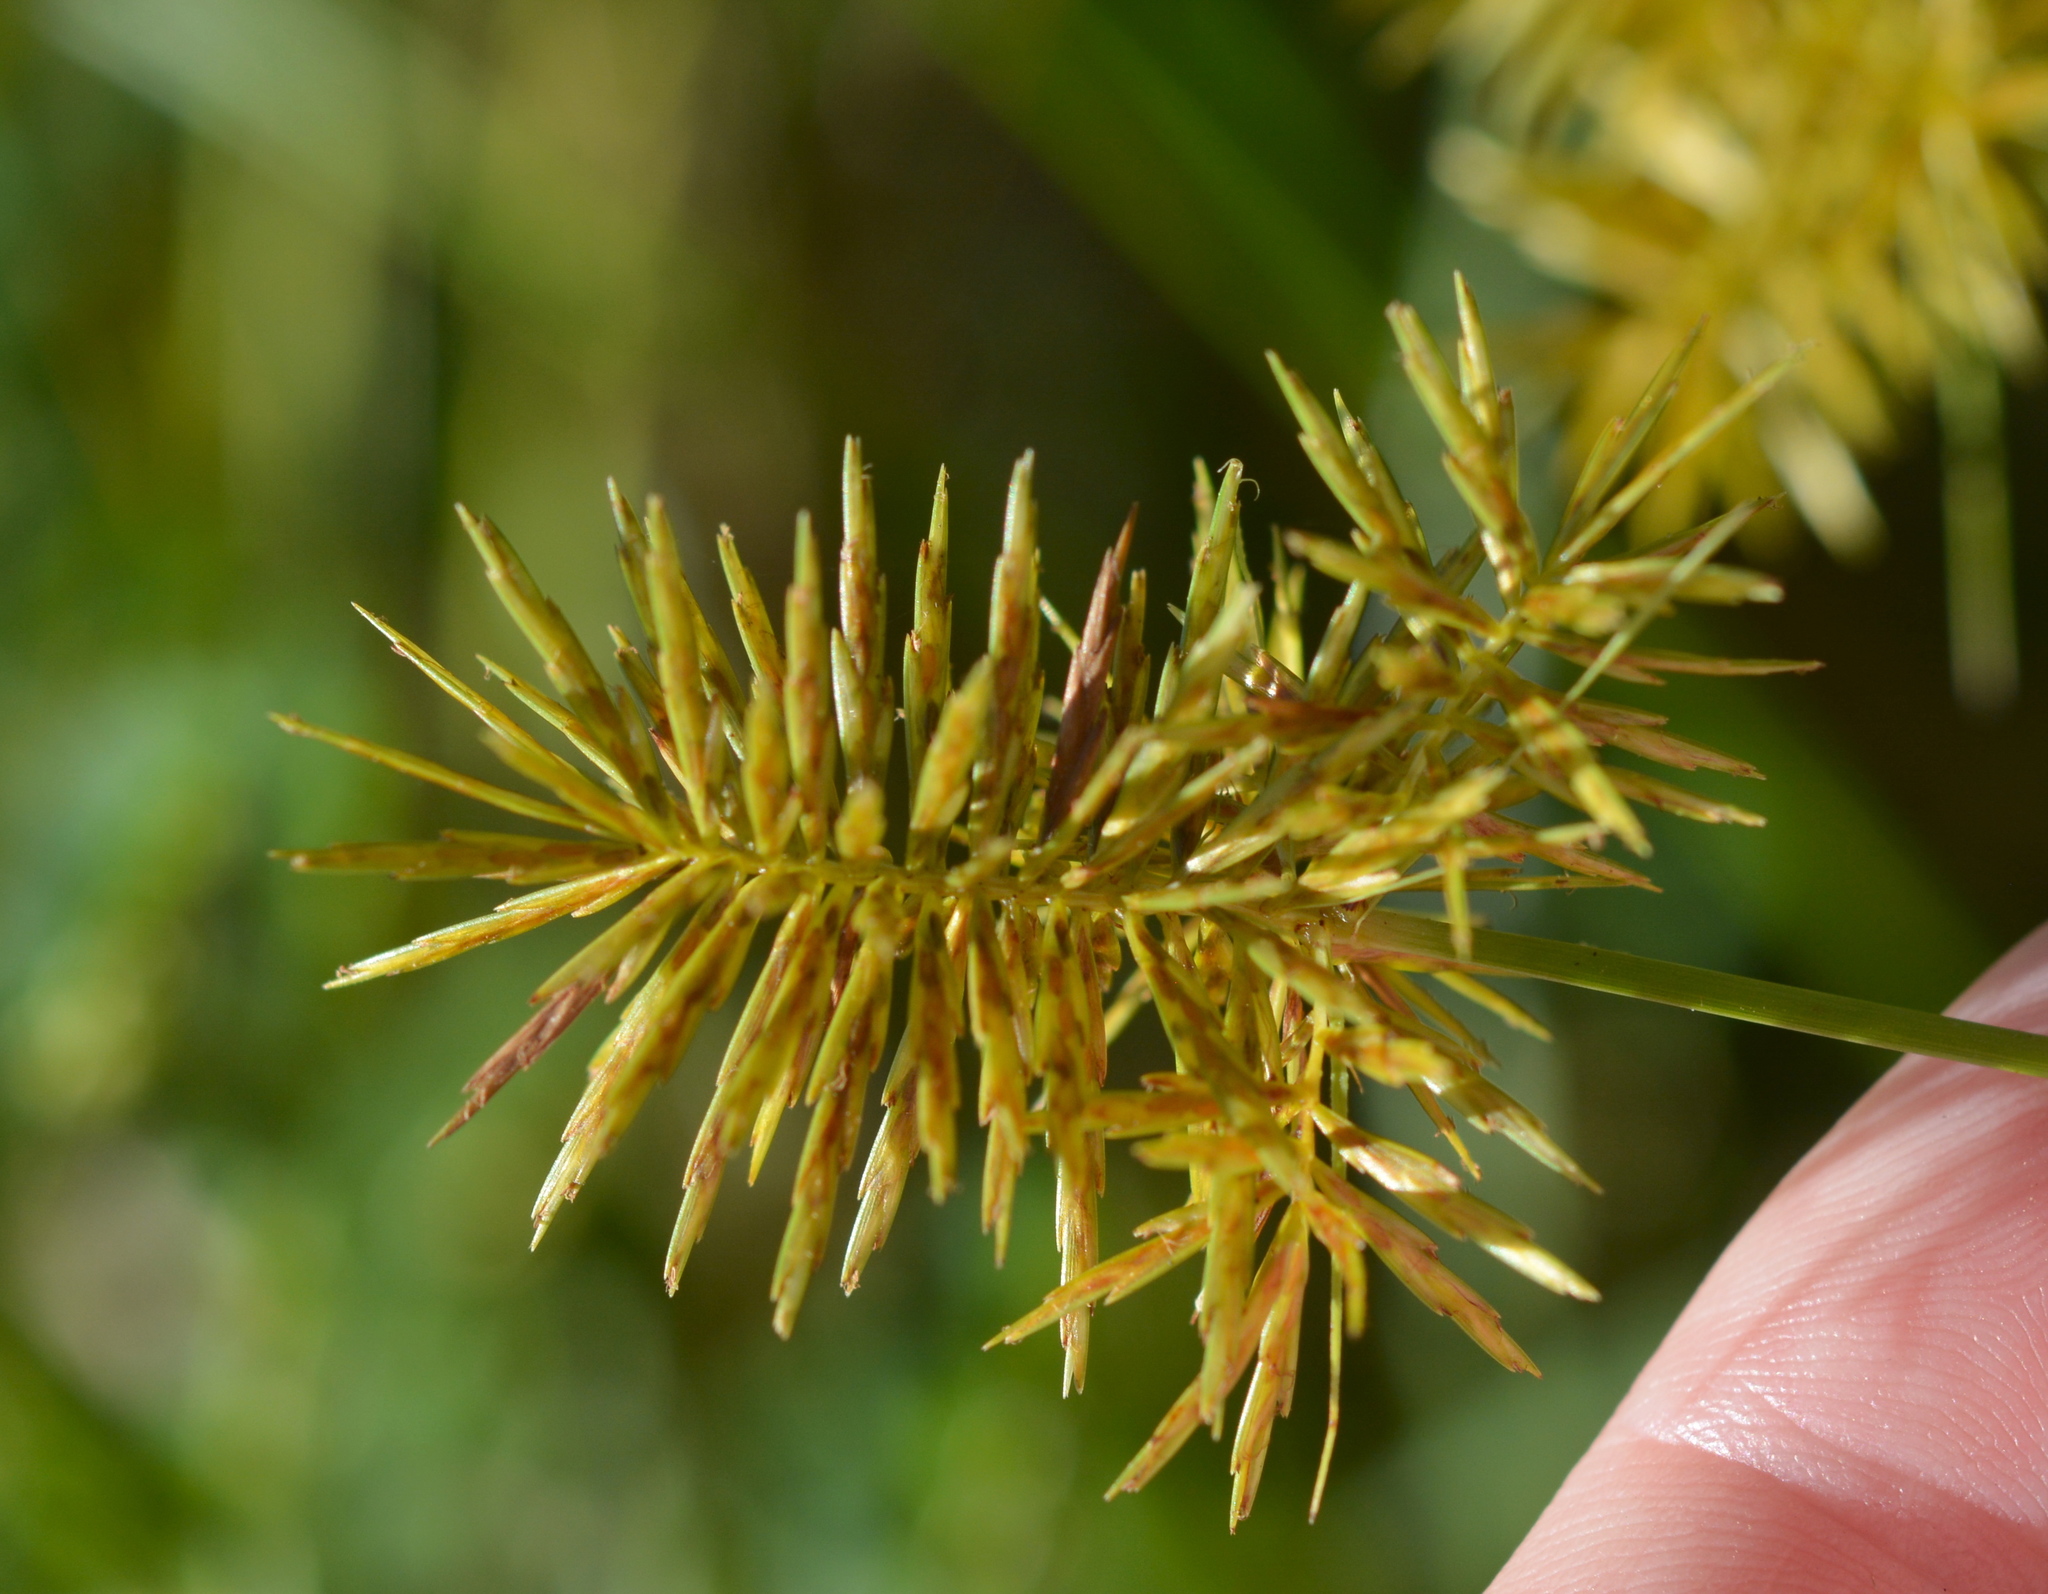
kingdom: Plantae
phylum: Tracheophyta
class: Liliopsida
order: Poales
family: Cyperaceae
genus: Cyperus
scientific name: Cyperus strigosus
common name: False nutsedge
